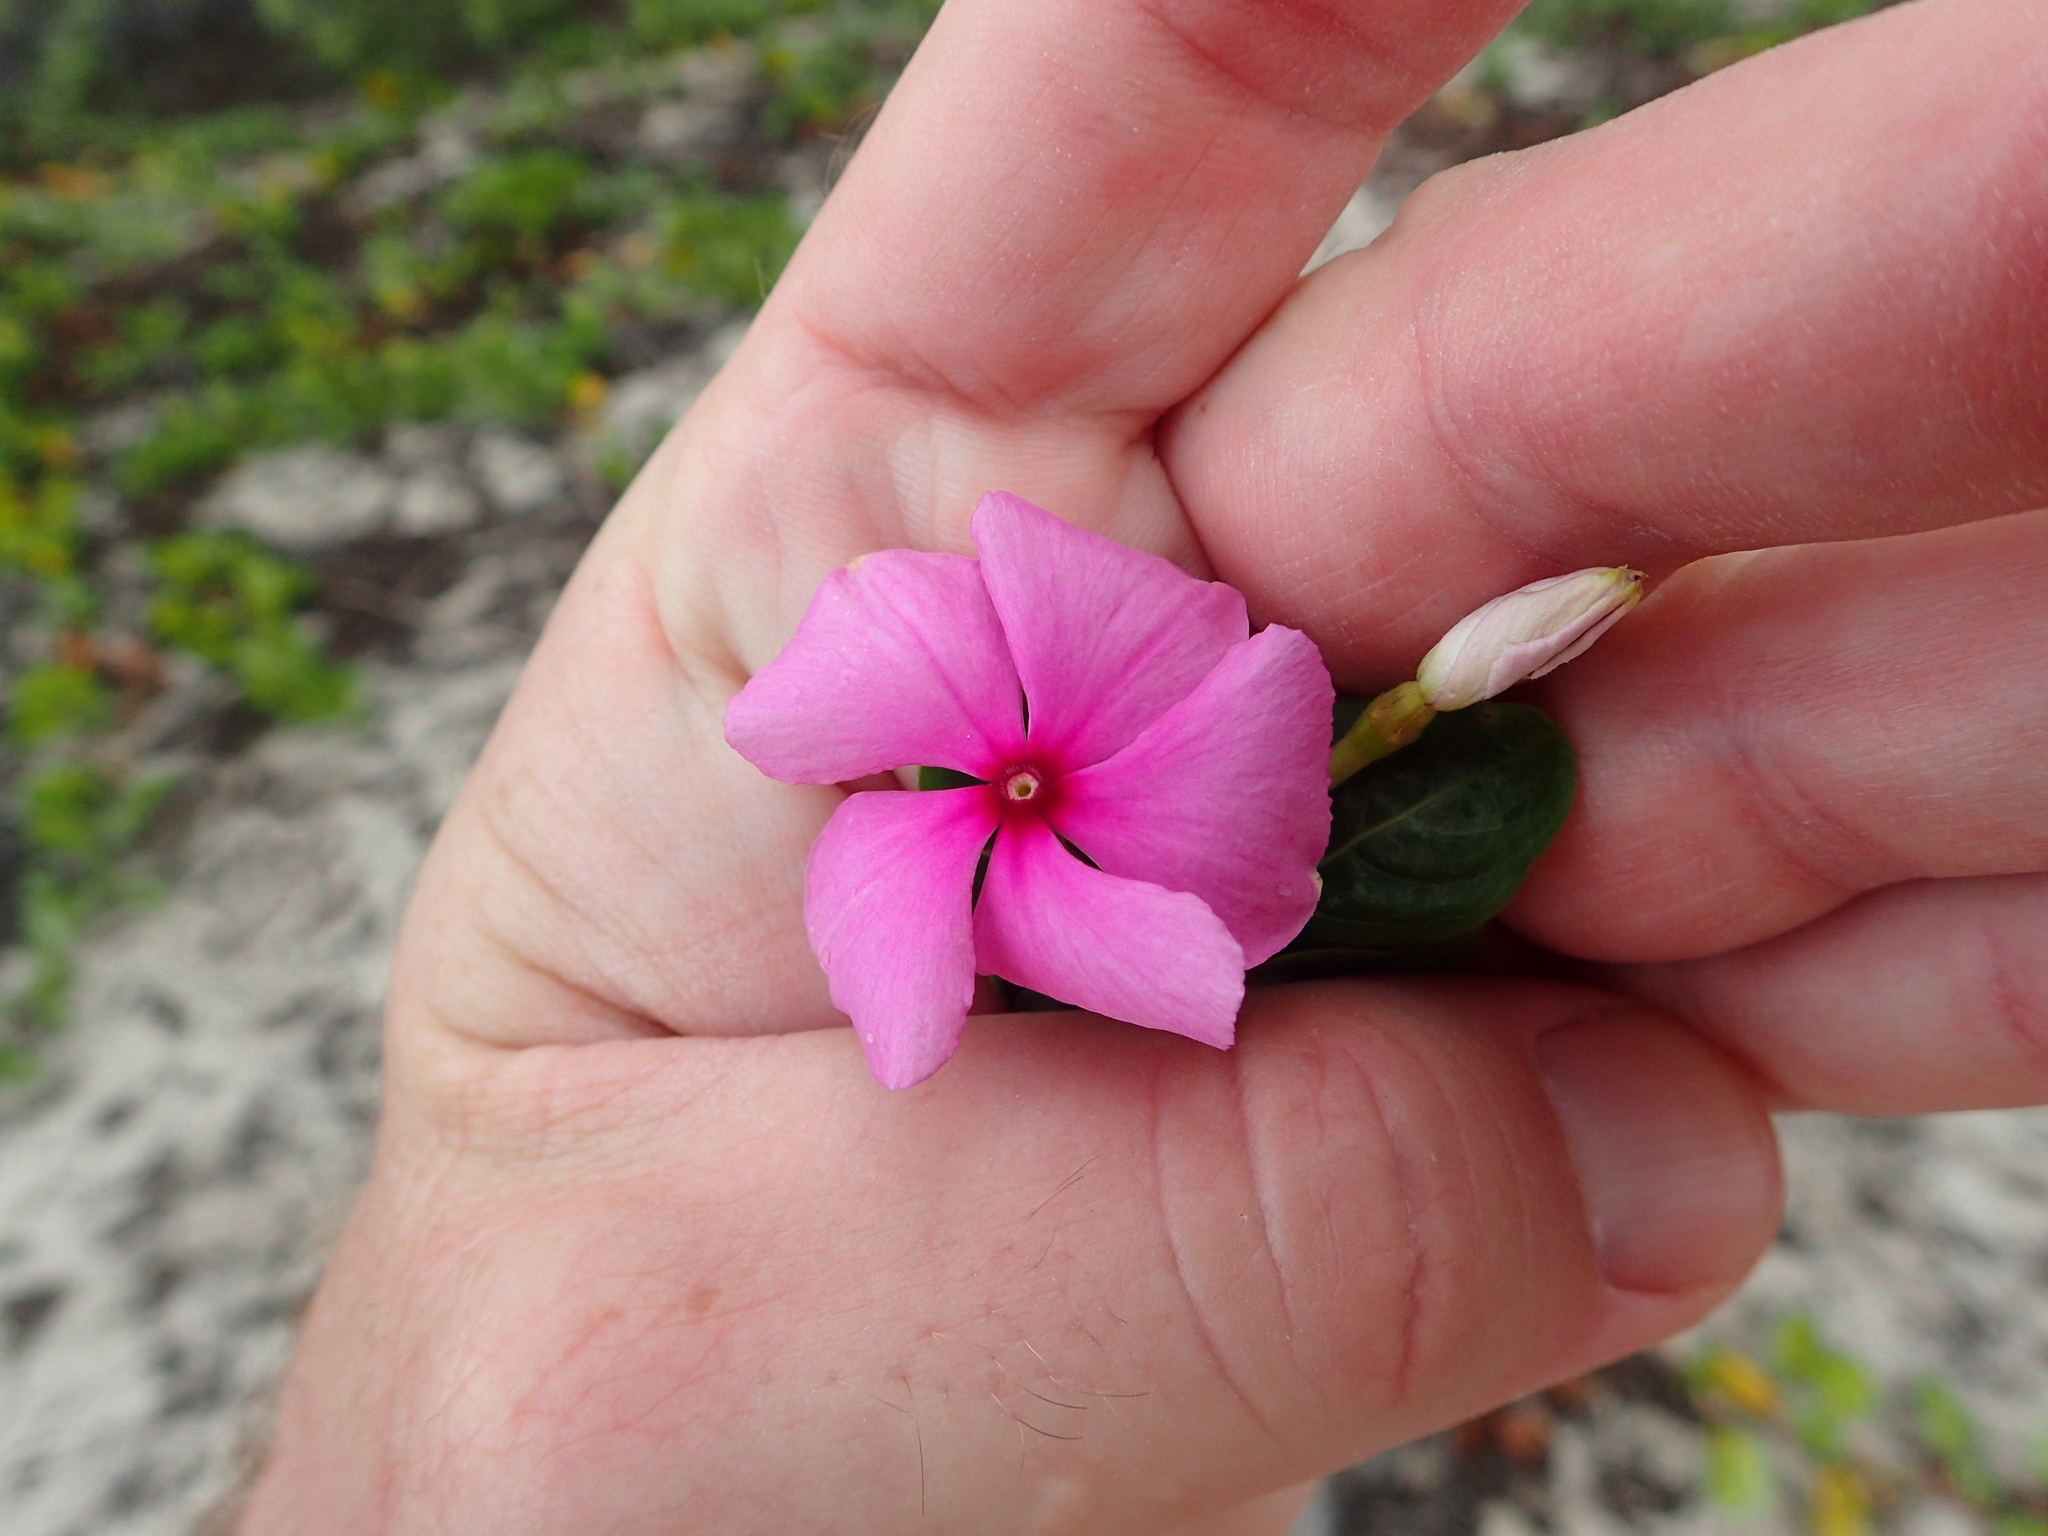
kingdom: Plantae
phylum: Tracheophyta
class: Magnoliopsida
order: Gentianales
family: Apocynaceae
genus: Catharanthus
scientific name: Catharanthus roseus
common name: Madagascar periwinkle
